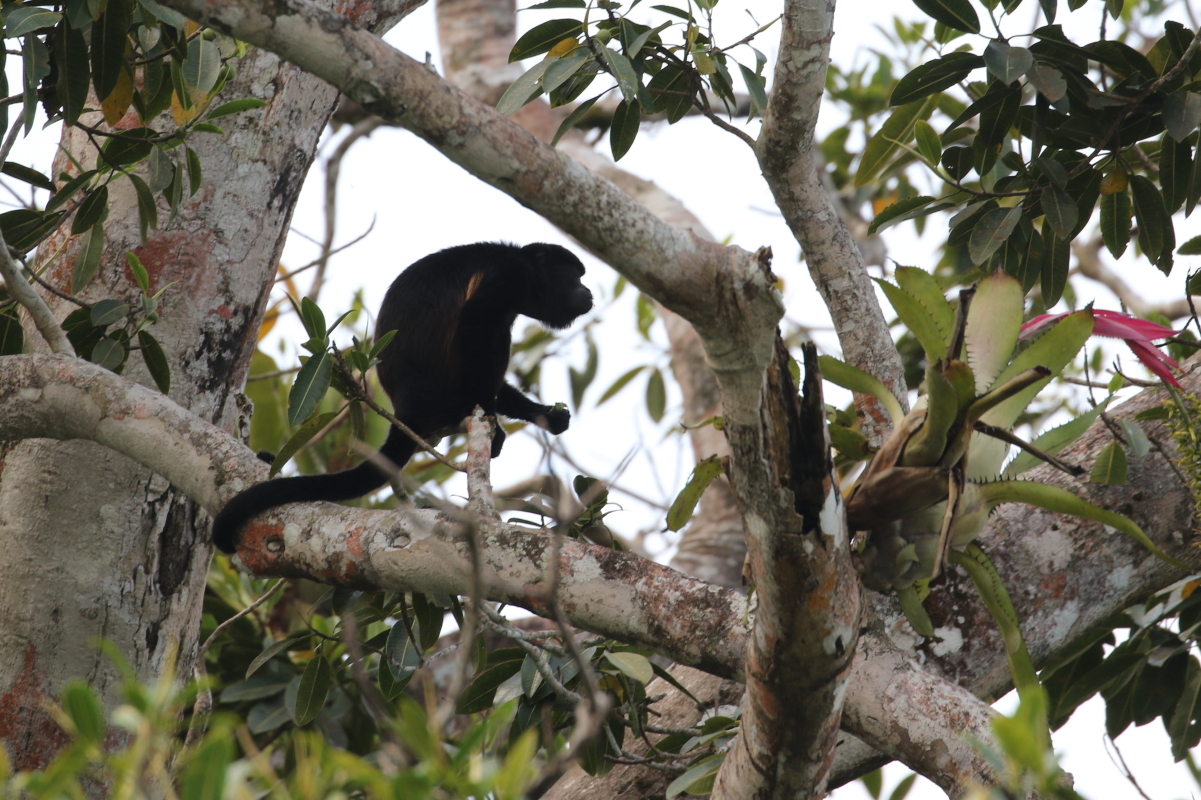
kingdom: Animalia
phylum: Chordata
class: Mammalia
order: Primates
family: Atelidae
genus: Alouatta
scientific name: Alouatta palliata
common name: Mantled howler
